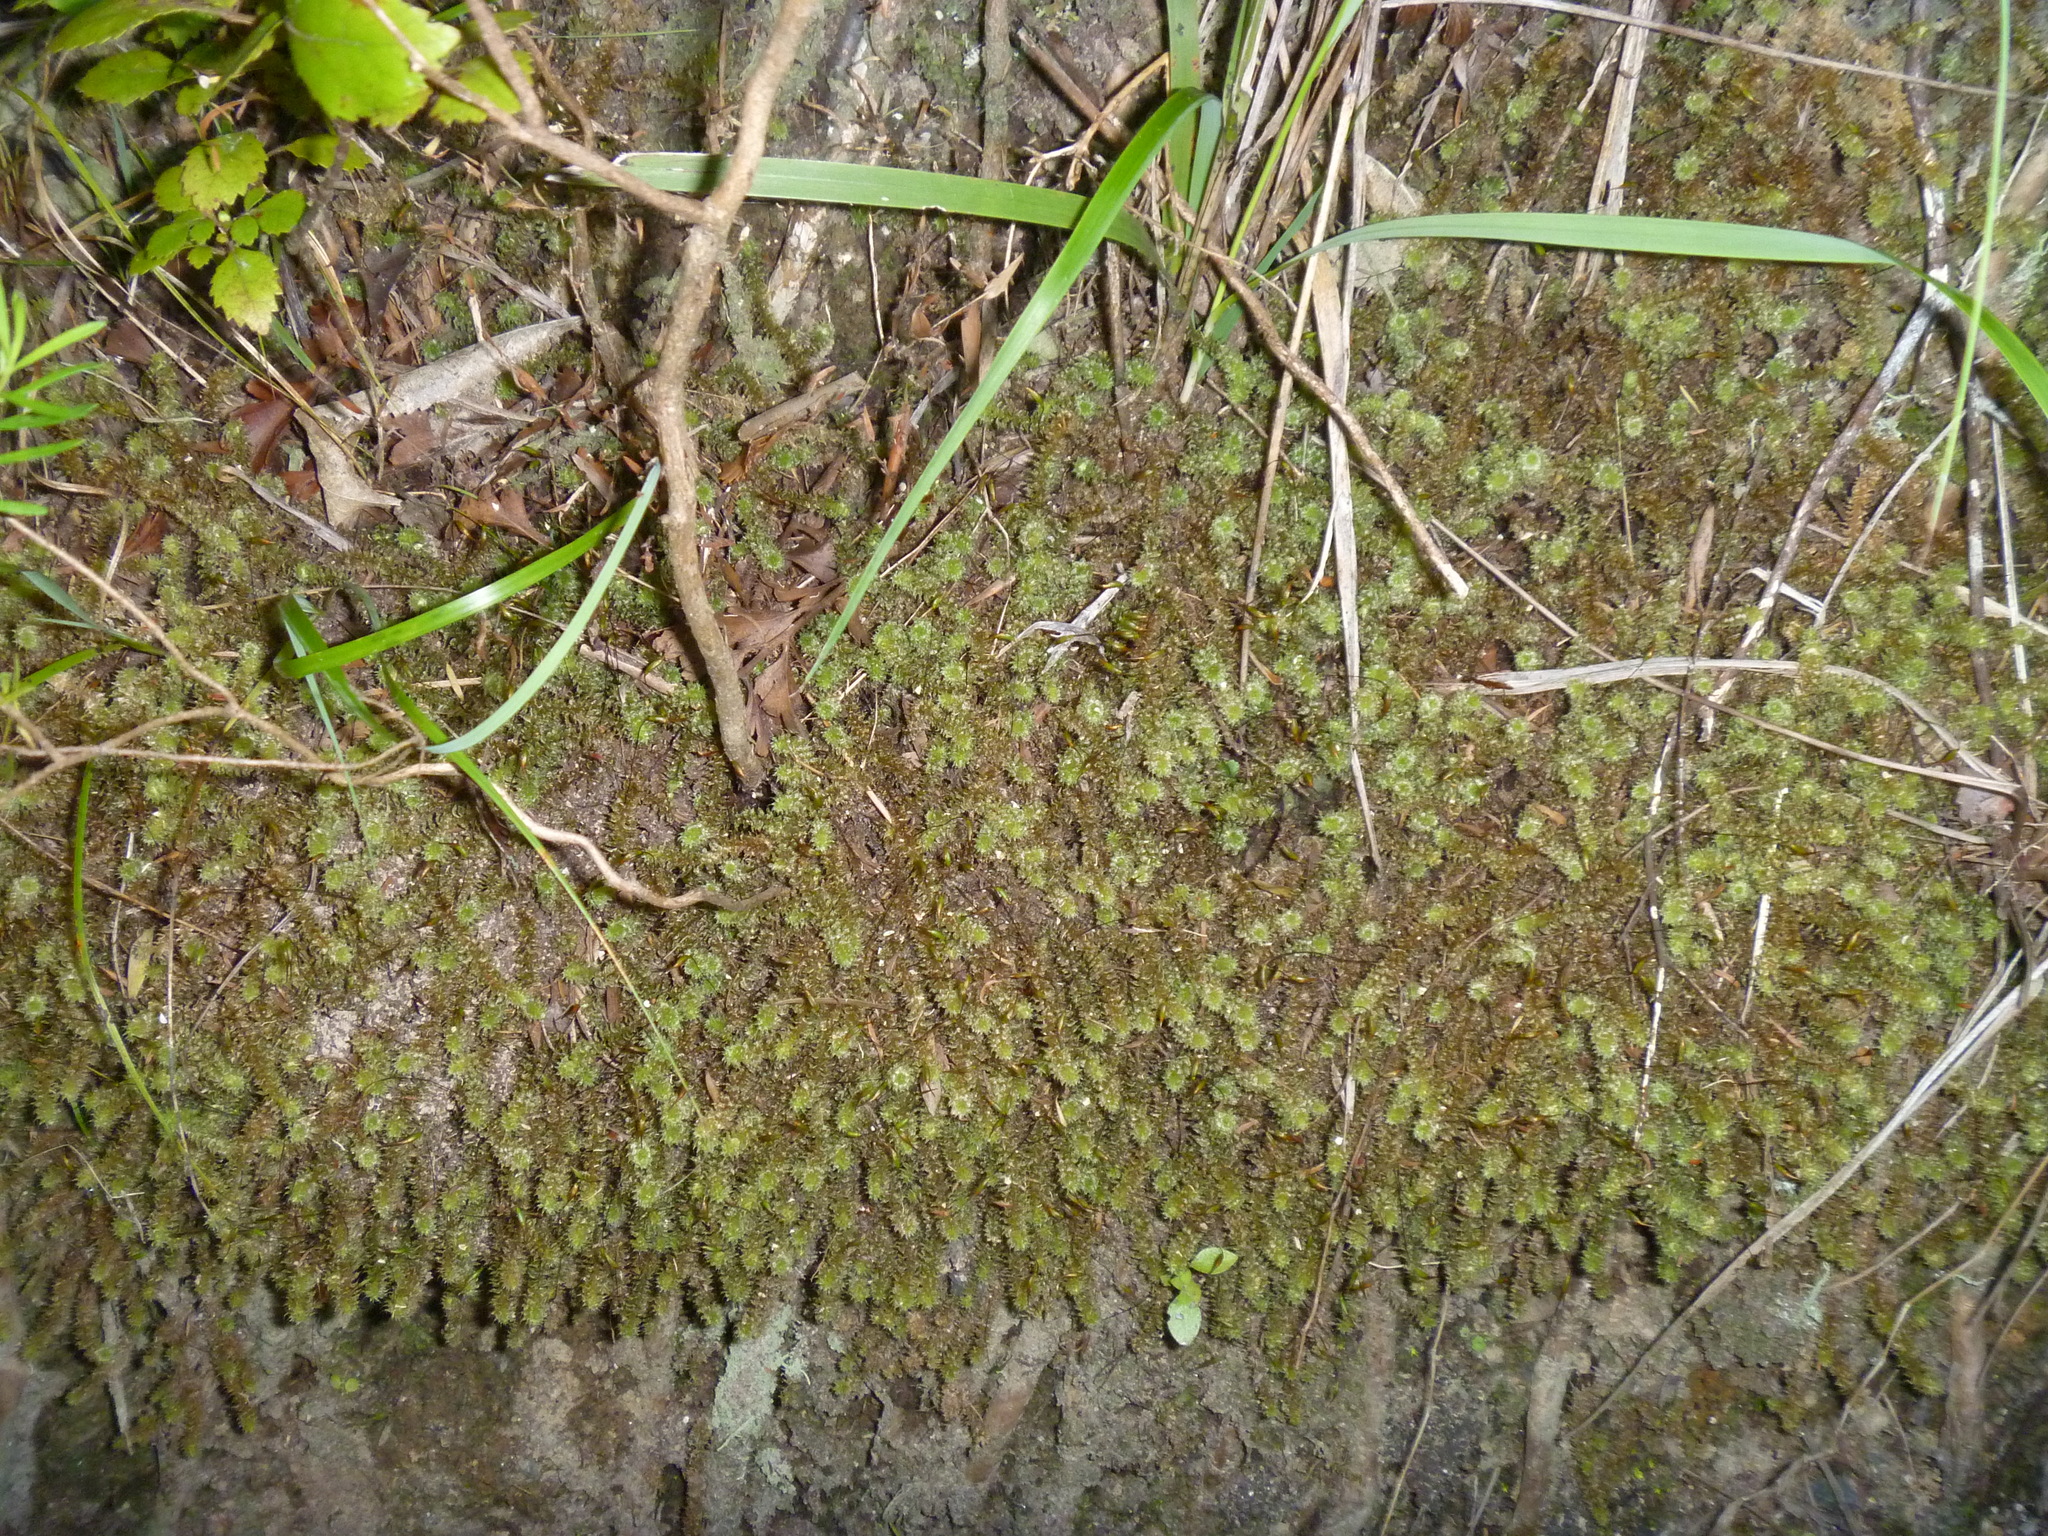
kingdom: Plantae
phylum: Bryophyta
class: Bryopsida
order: Ptychomniales
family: Ptychomniaceae
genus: Ptychomnion
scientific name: Ptychomnion aciculare
